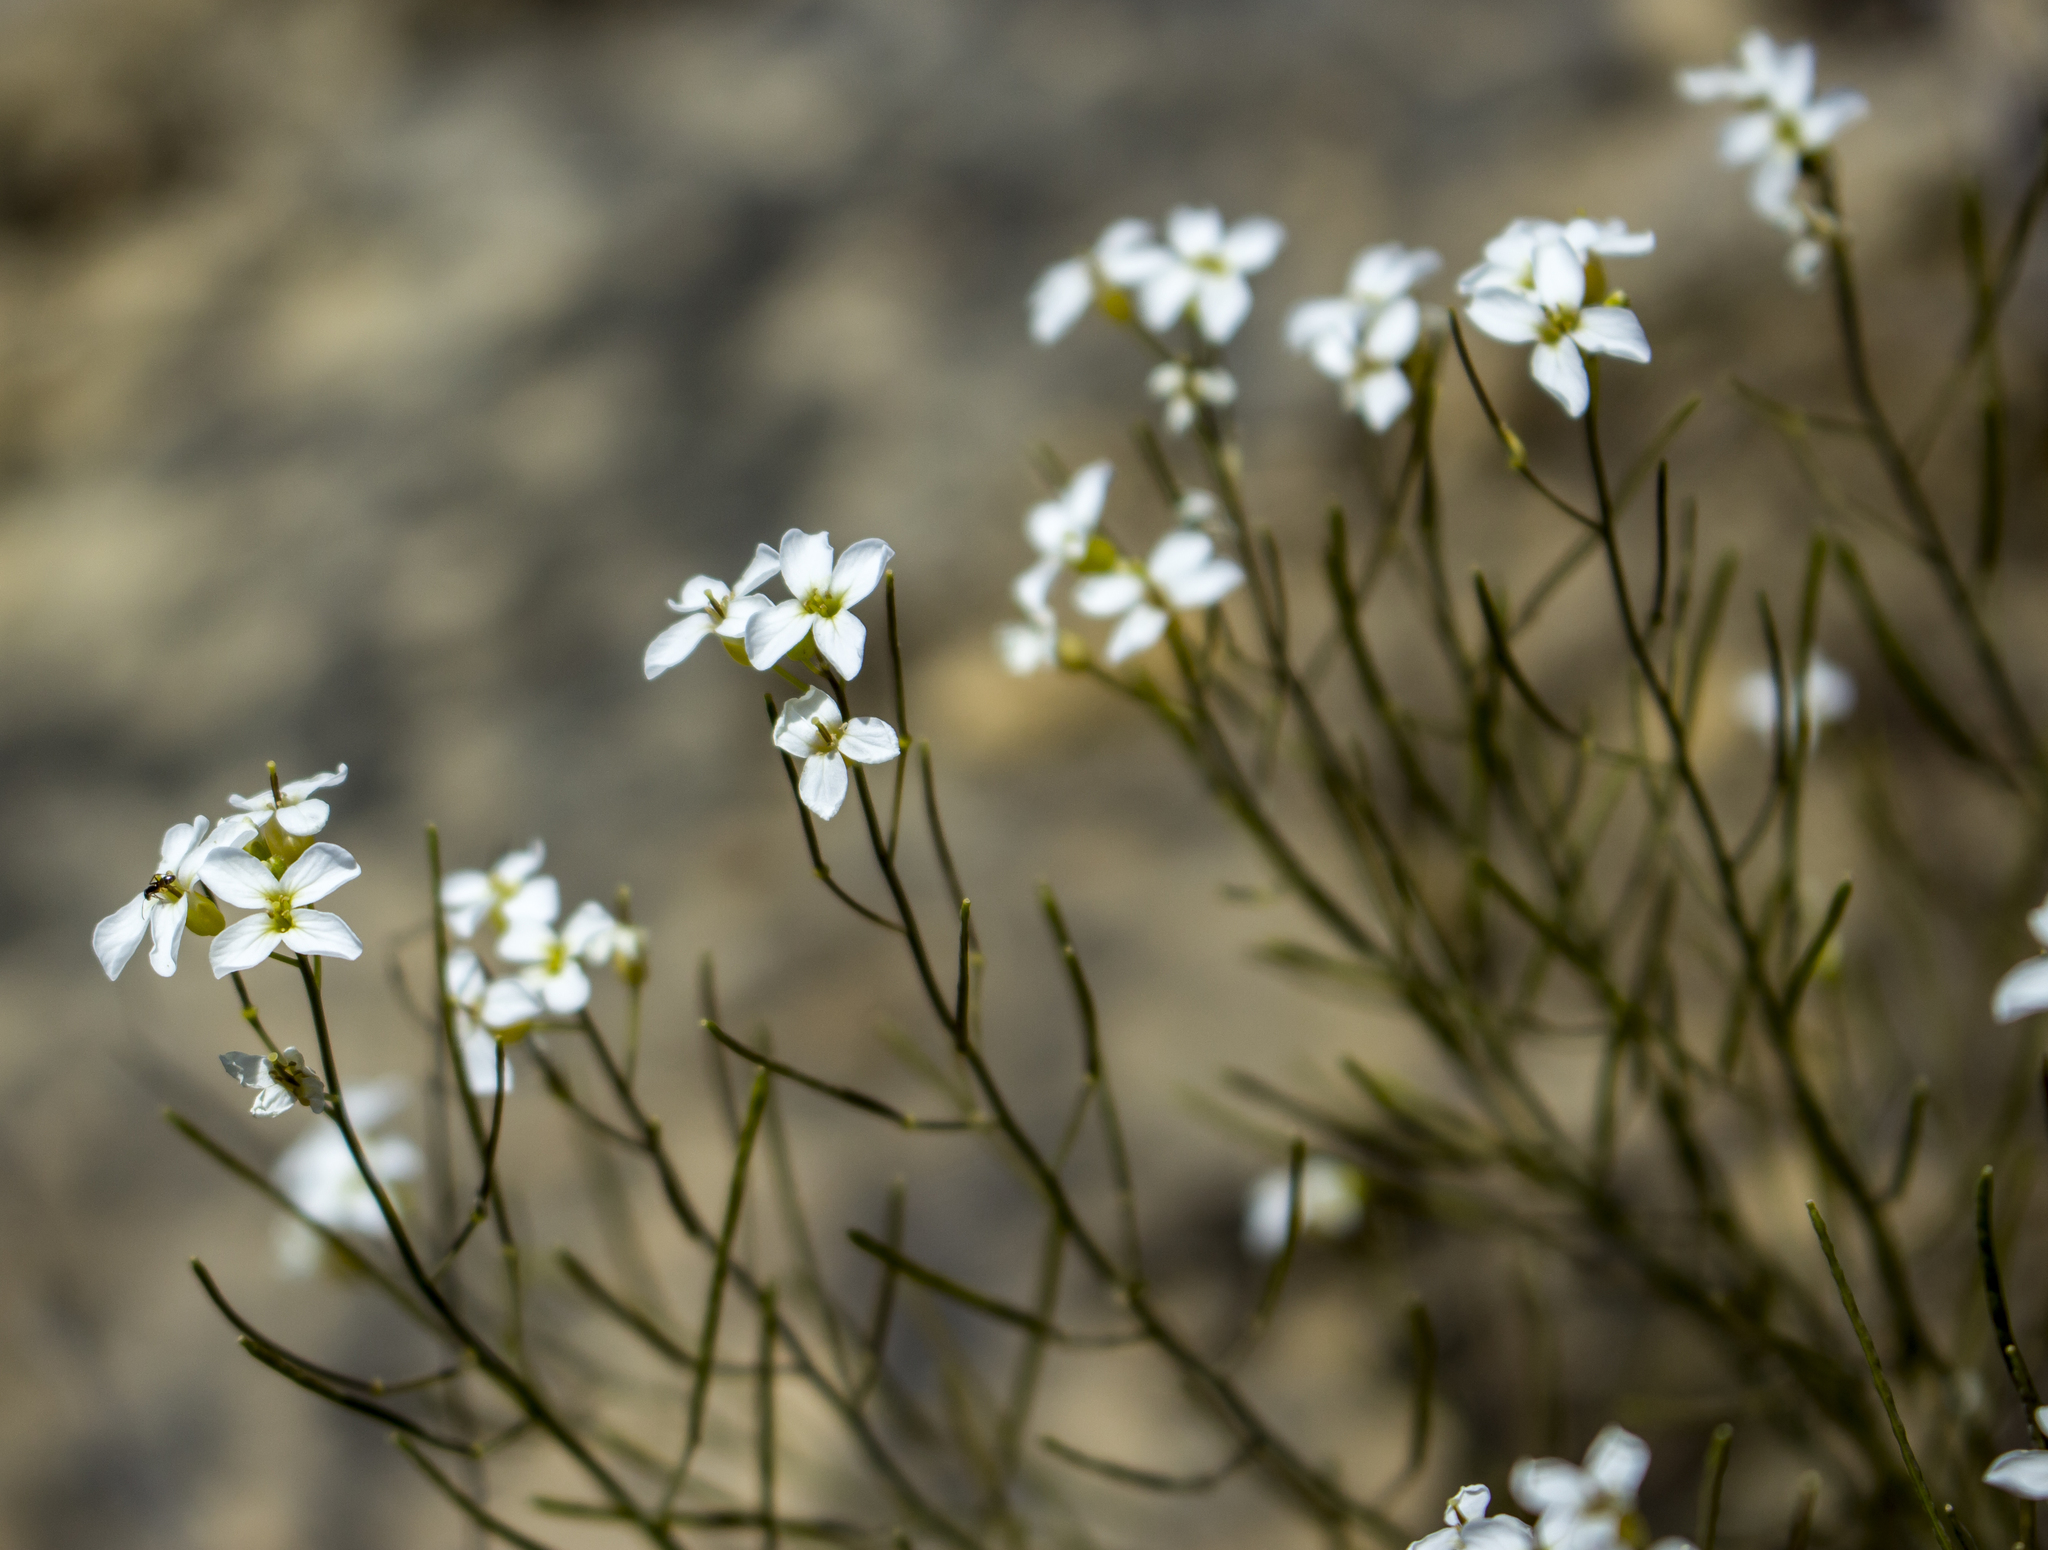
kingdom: Plantae
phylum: Tracheophyta
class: Magnoliopsida
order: Brassicales
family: Brassicaceae
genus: Arabidopsis
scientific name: Arabidopsis lyrata
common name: Lyrate rockcress
